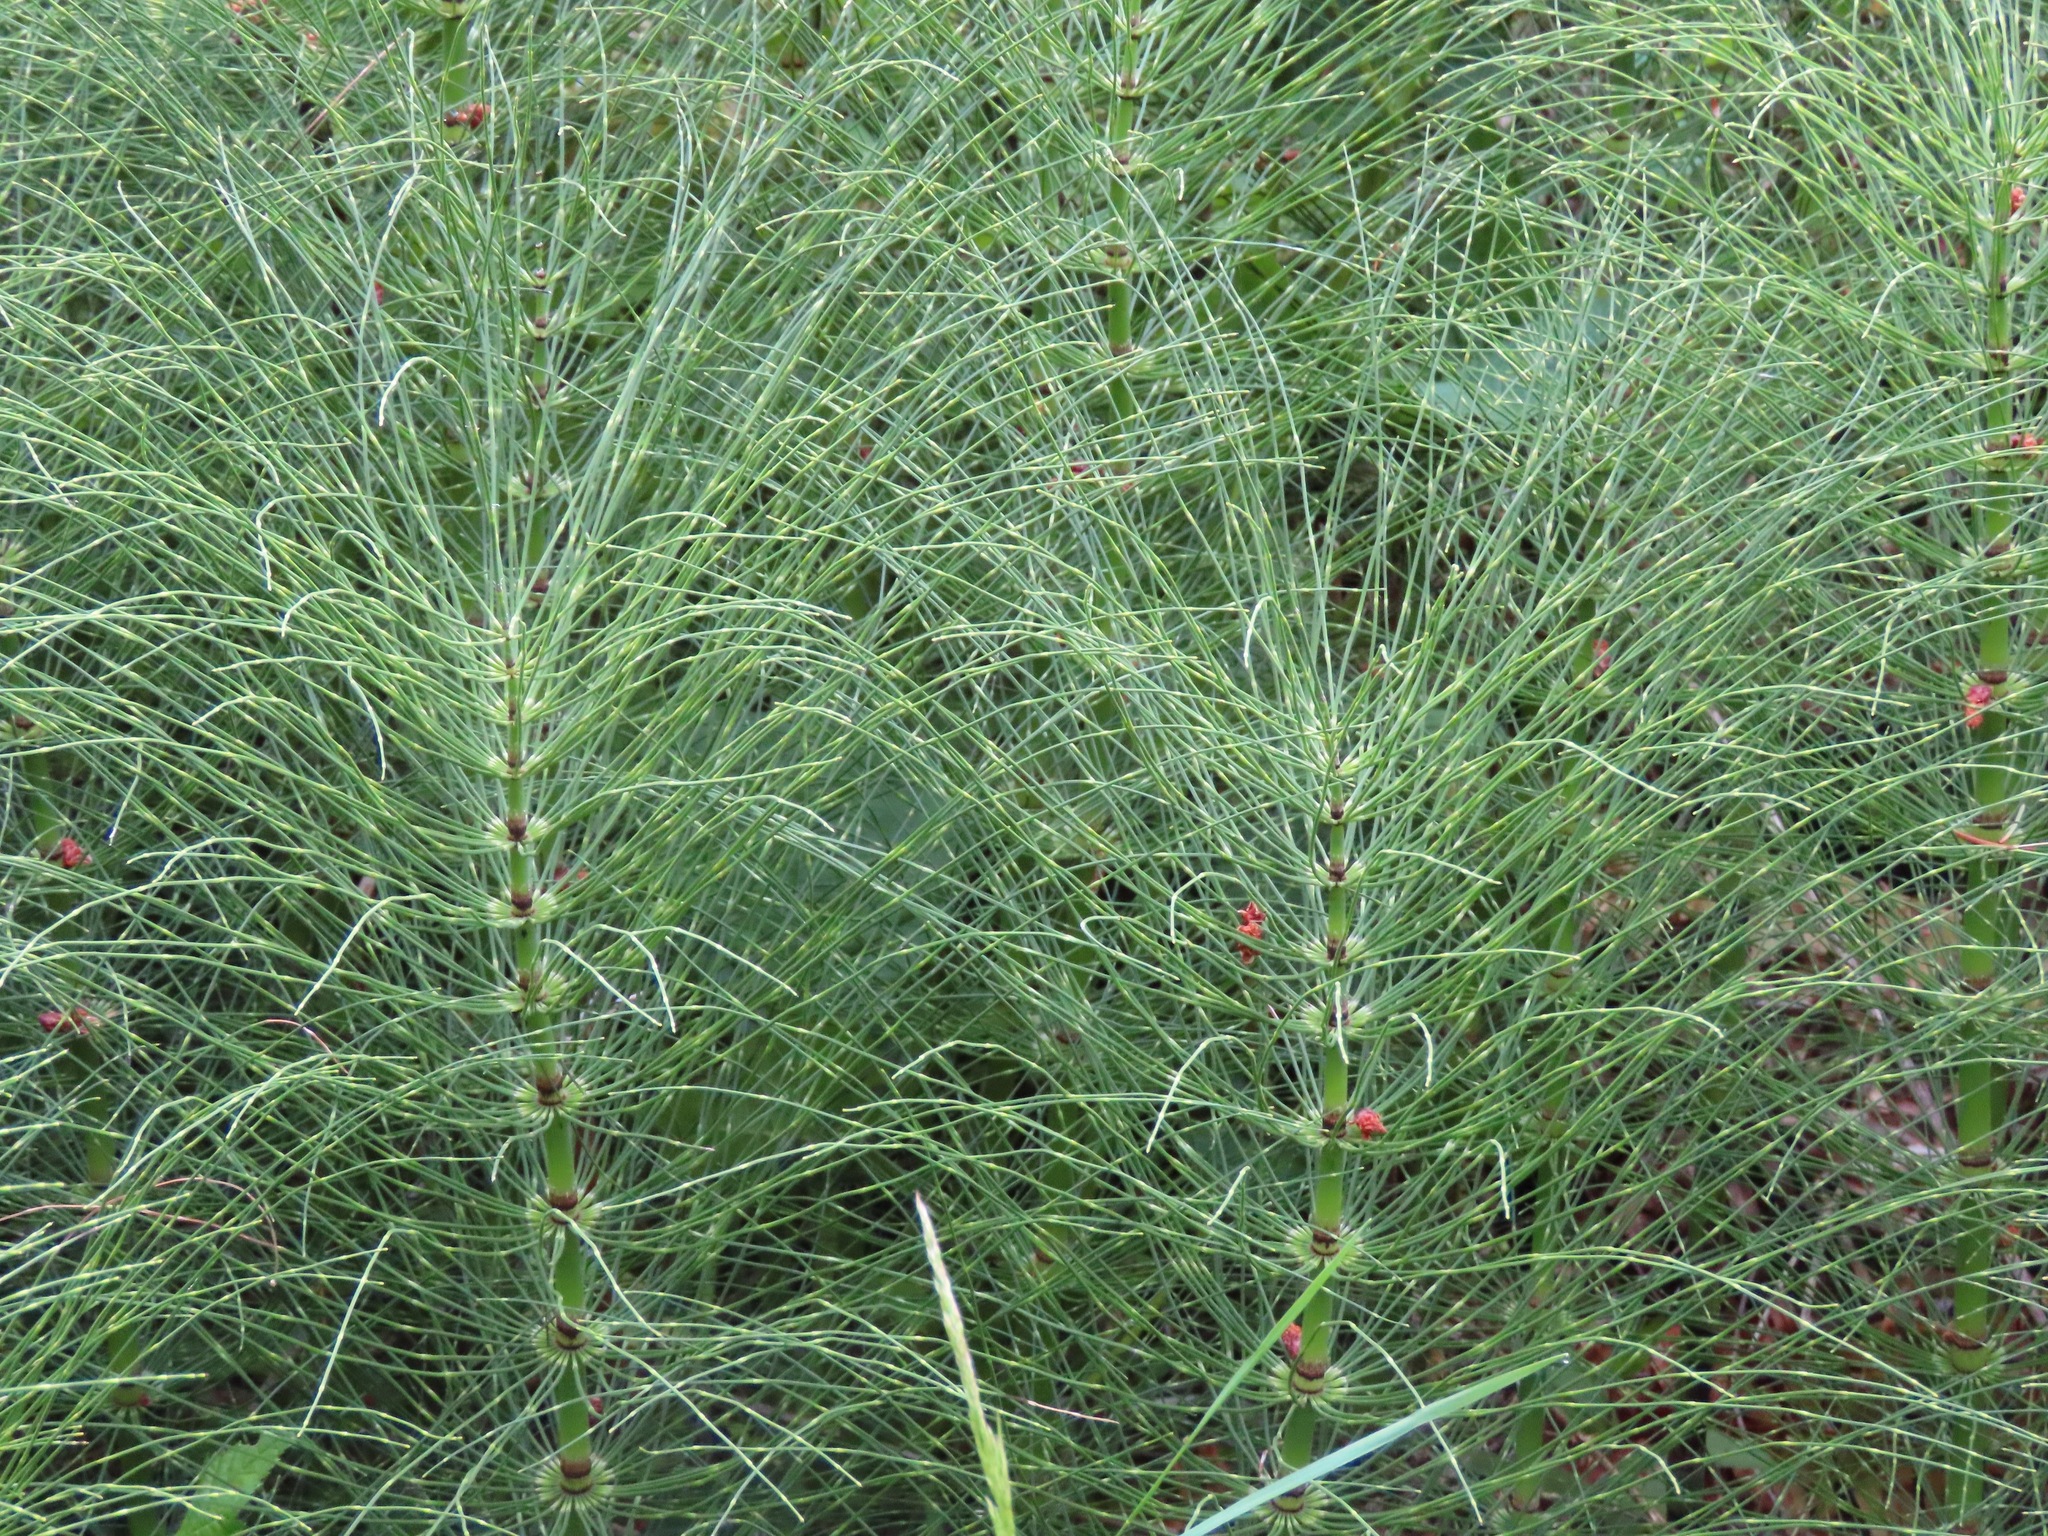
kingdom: Plantae
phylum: Tracheophyta
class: Polypodiopsida
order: Equisetales
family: Equisetaceae
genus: Equisetum
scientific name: Equisetum braunii
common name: Braun's horsetail
